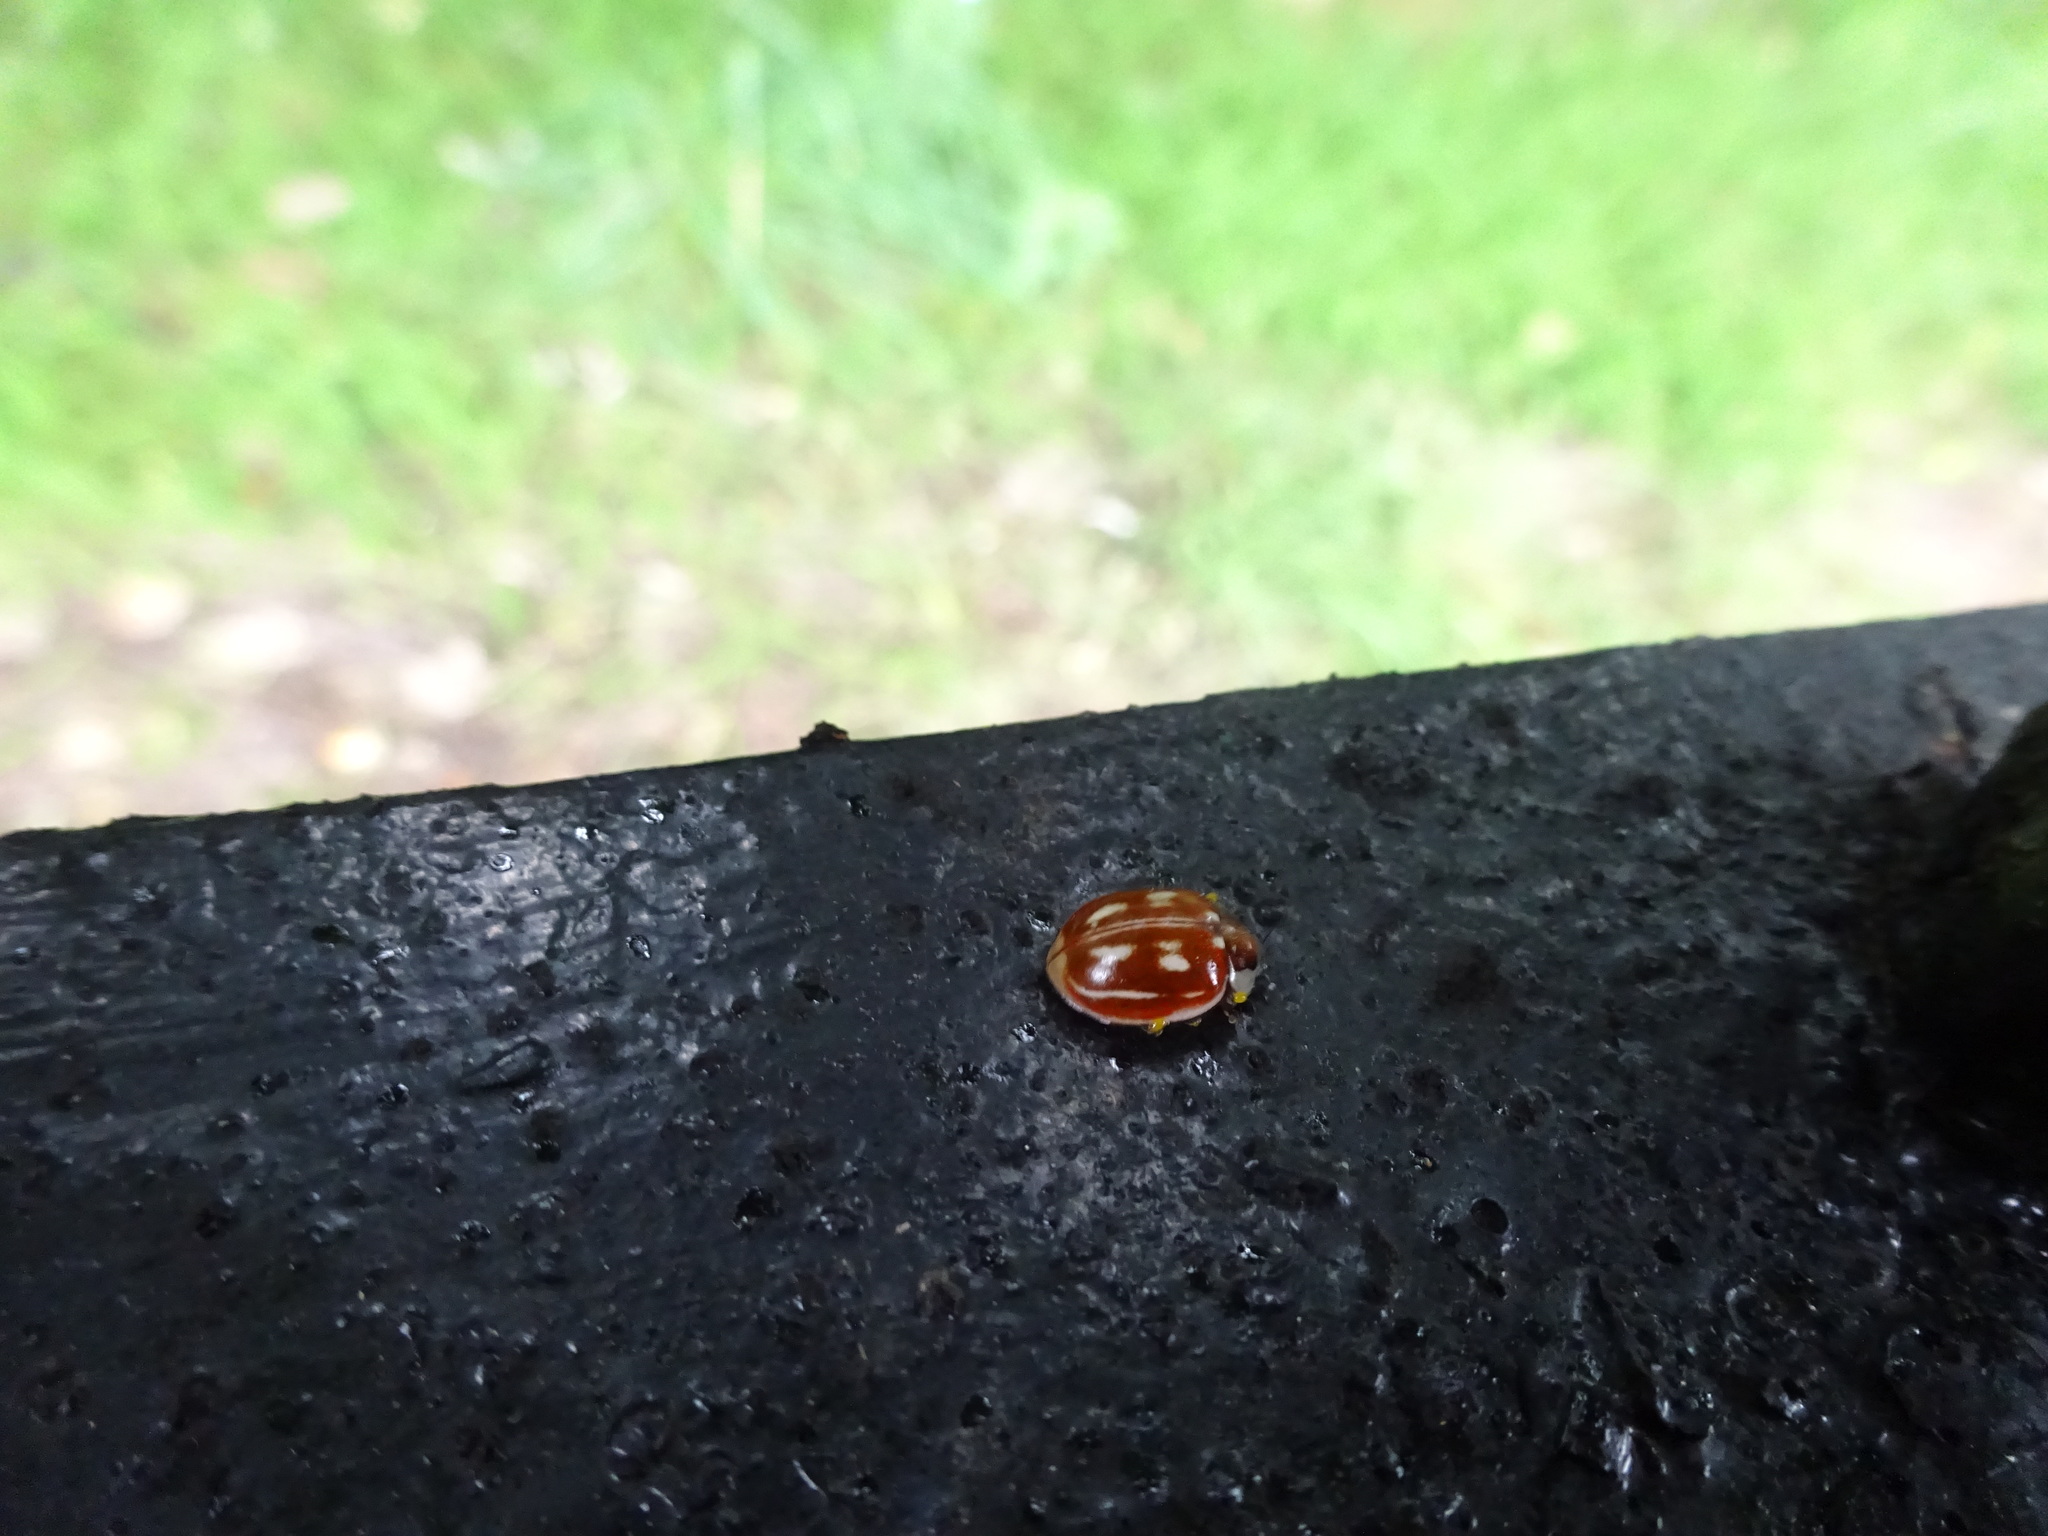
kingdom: Animalia
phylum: Arthropoda
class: Insecta
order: Coleoptera
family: Coccinellidae
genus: Myzia
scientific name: Myzia oblongoguttata
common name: Striped ladybird
